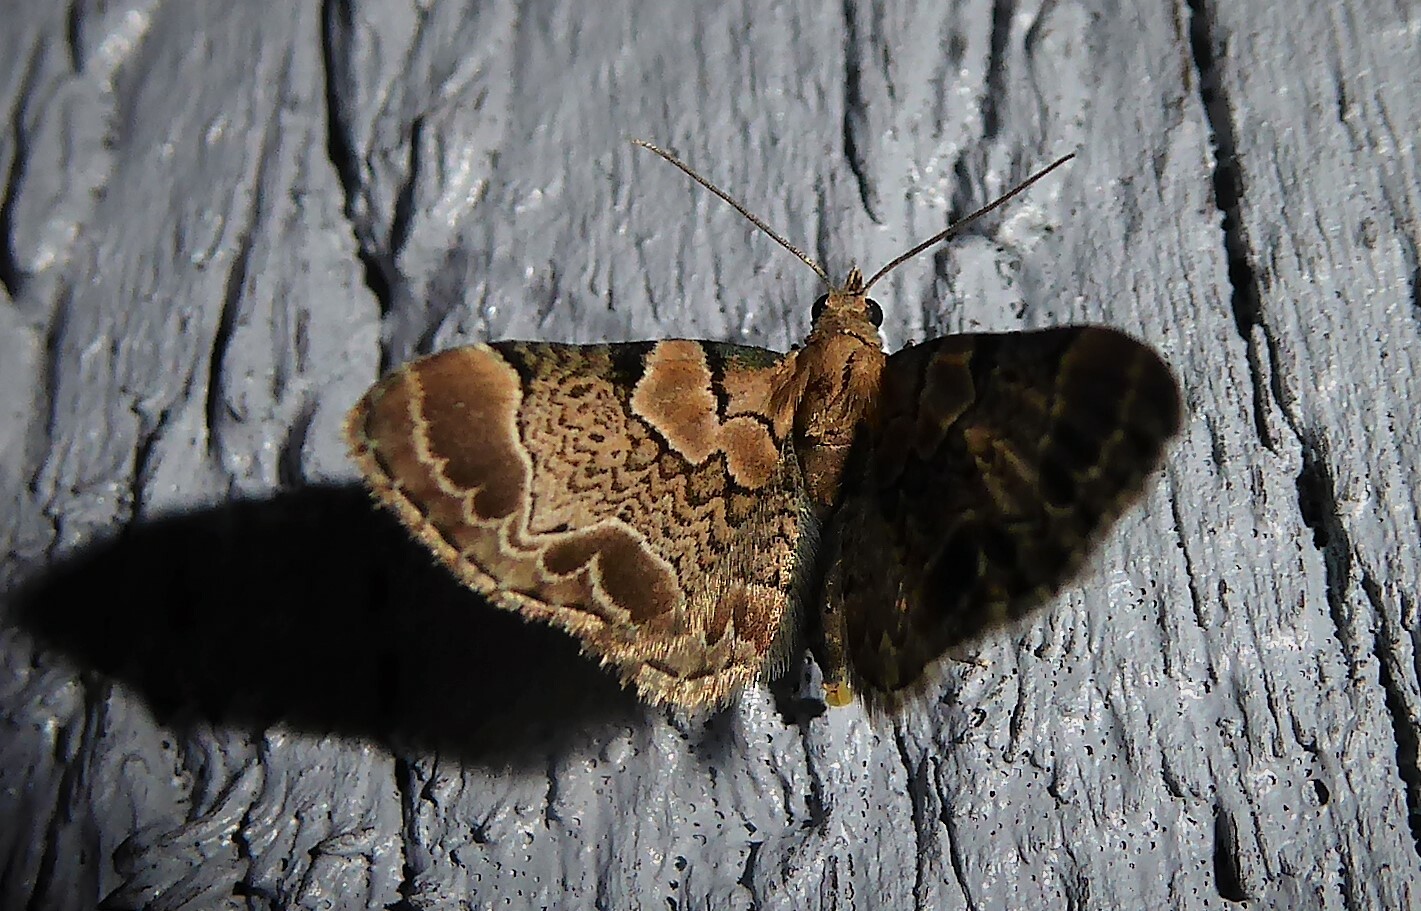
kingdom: Animalia
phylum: Arthropoda
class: Insecta
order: Lepidoptera
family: Geometridae
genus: Chloroclystis
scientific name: Chloroclystis
